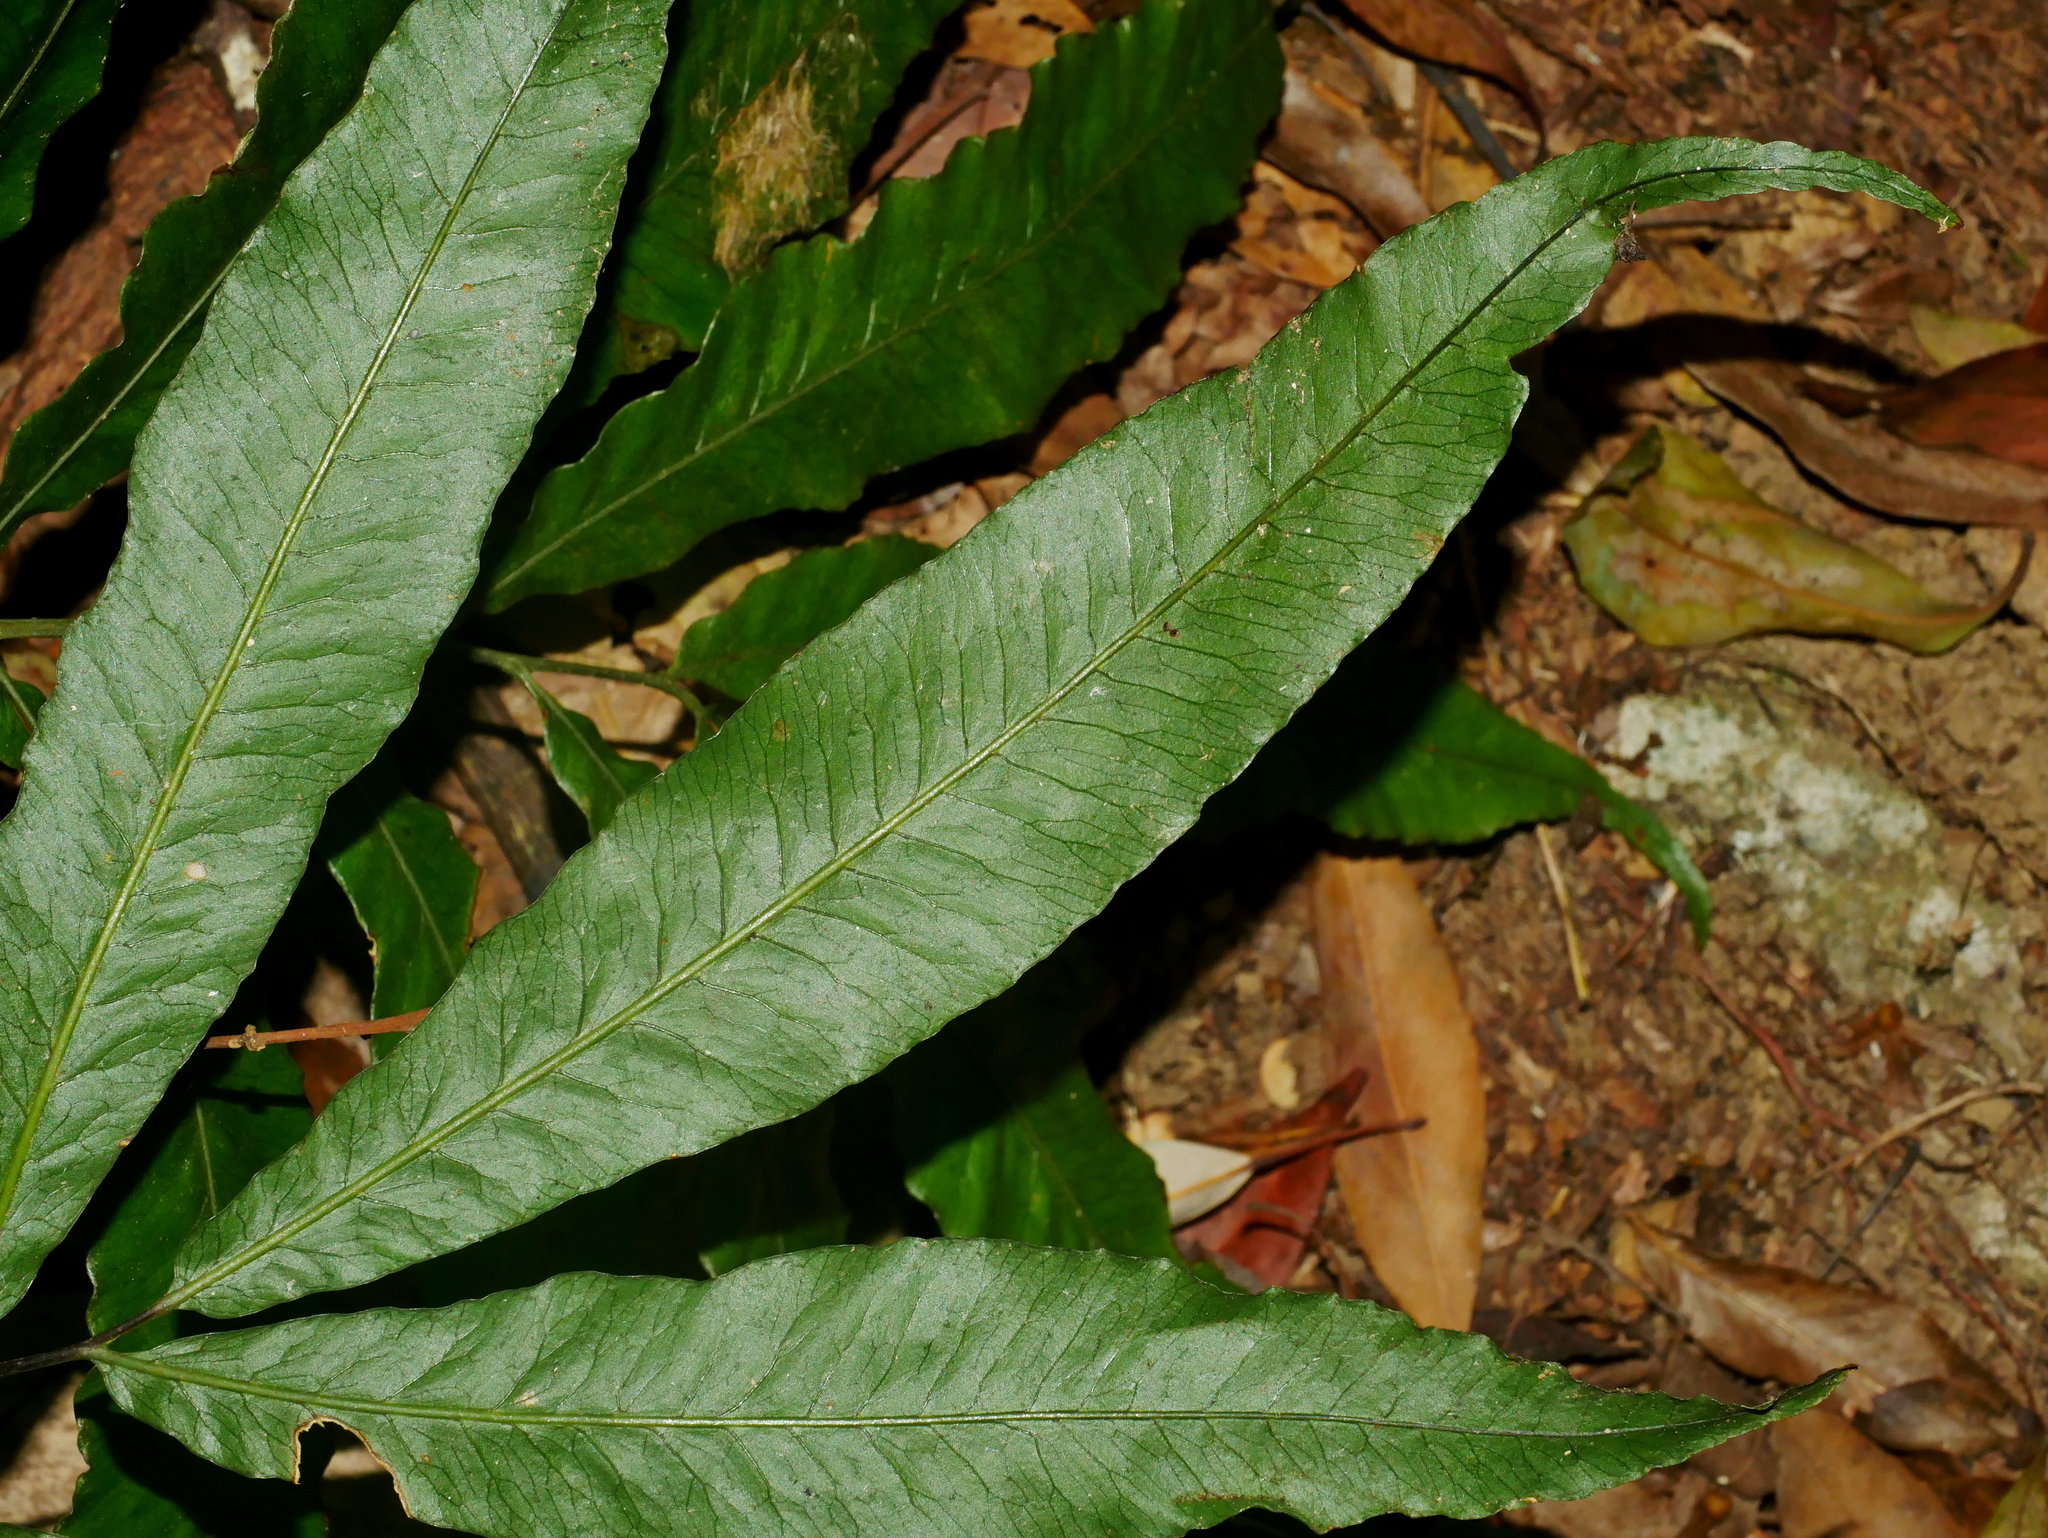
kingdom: Plantae
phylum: Tracheophyta
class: Polypodiopsida
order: Polypodiales
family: Dryopteridaceae
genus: Bolbitis
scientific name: Bolbitis lianhuachihensis
